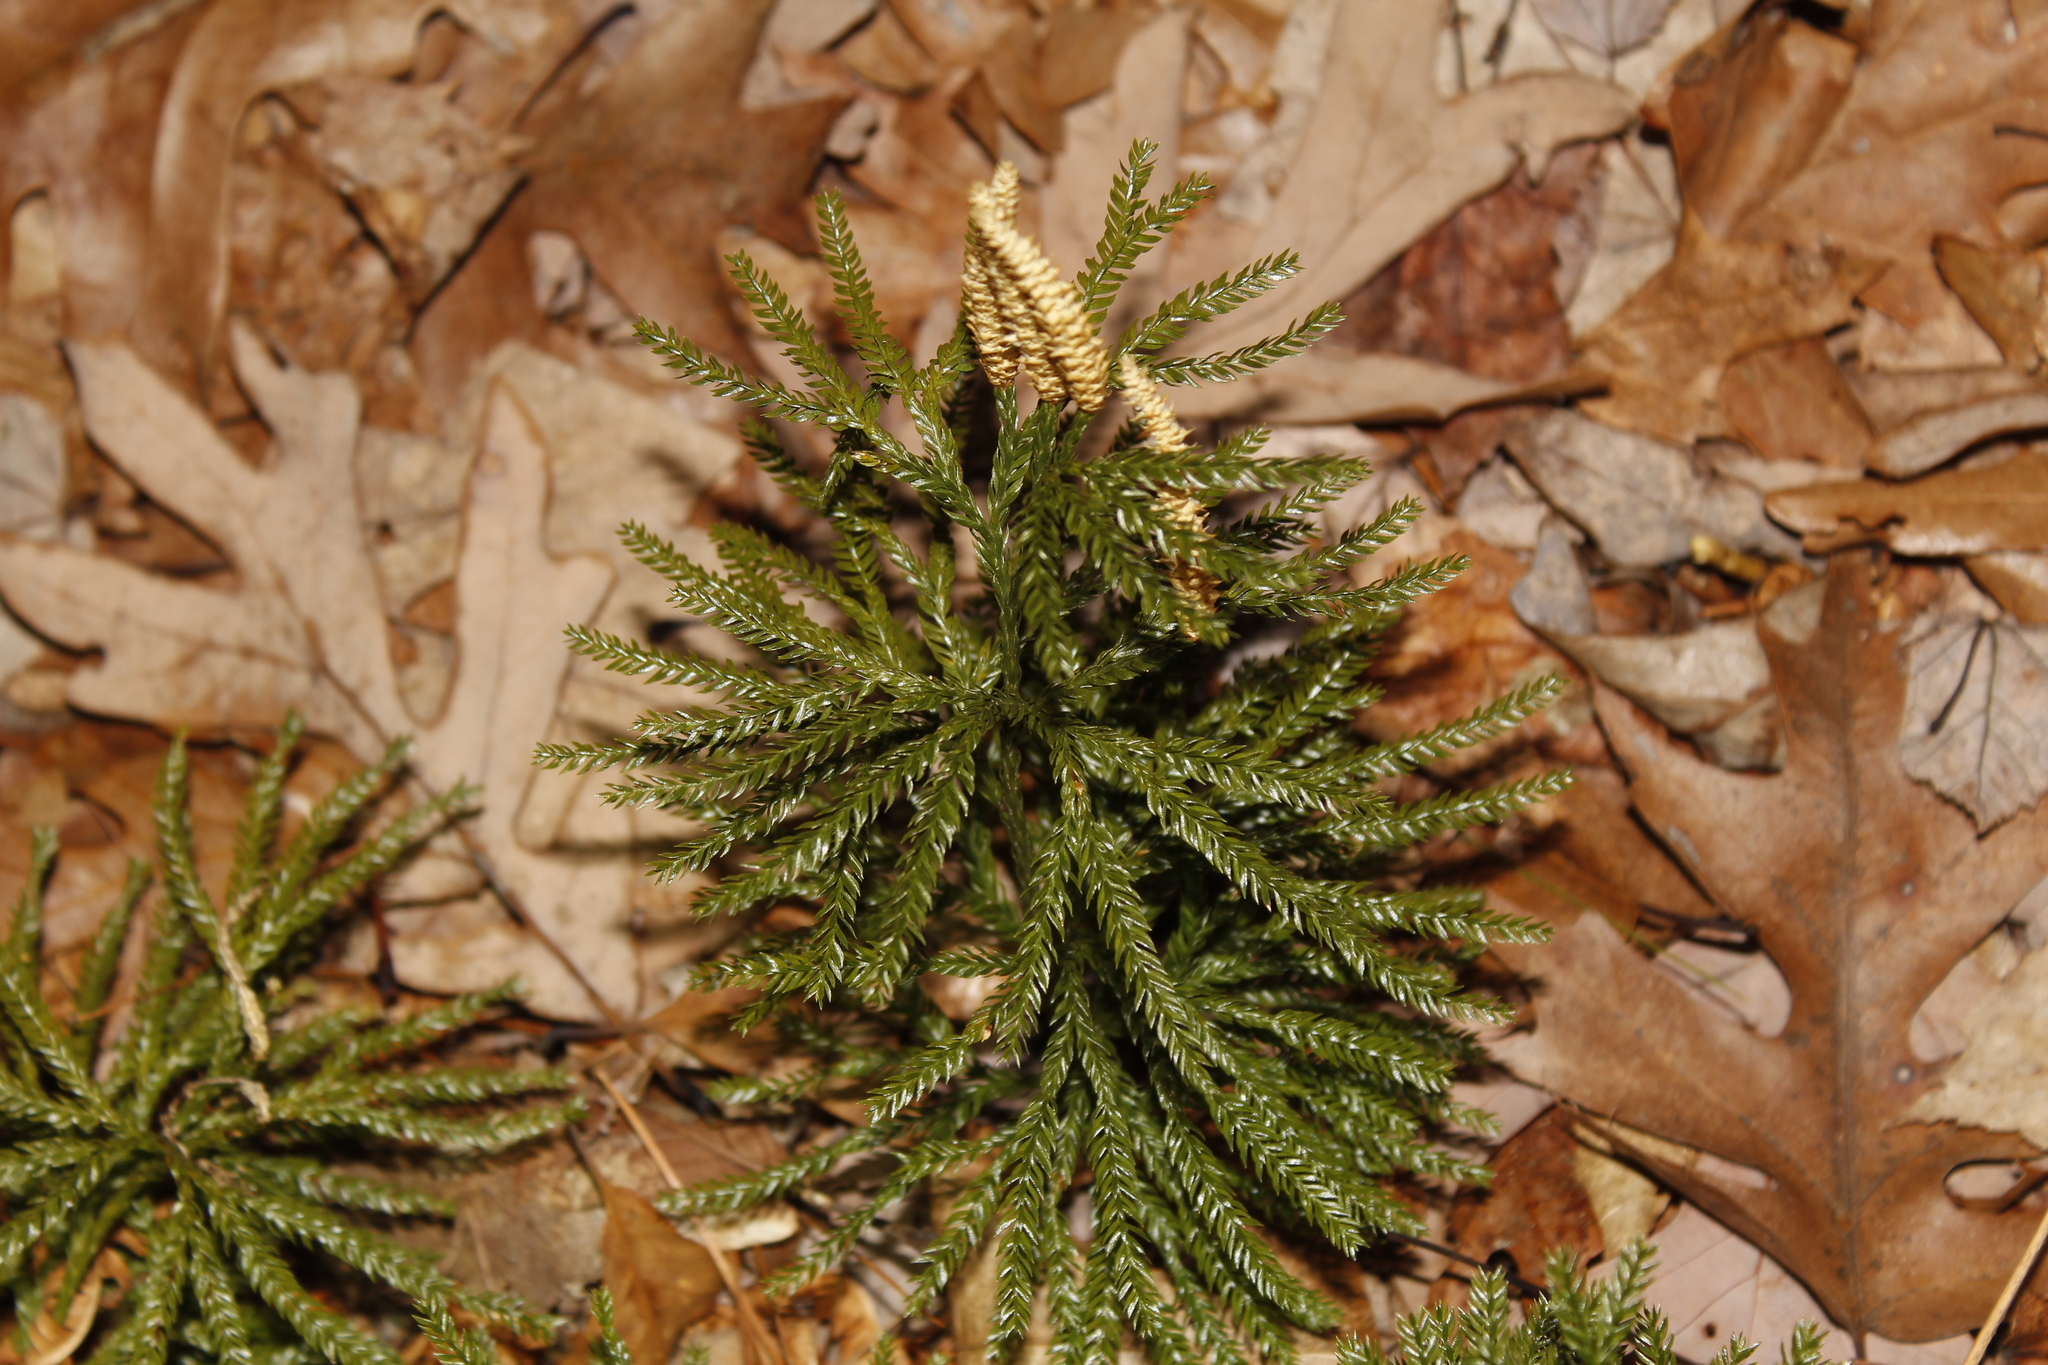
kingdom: Plantae
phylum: Tracheophyta
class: Lycopodiopsida
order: Lycopodiales
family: Lycopodiaceae
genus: Dendrolycopodium
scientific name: Dendrolycopodium obscurum
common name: Common ground-pine
